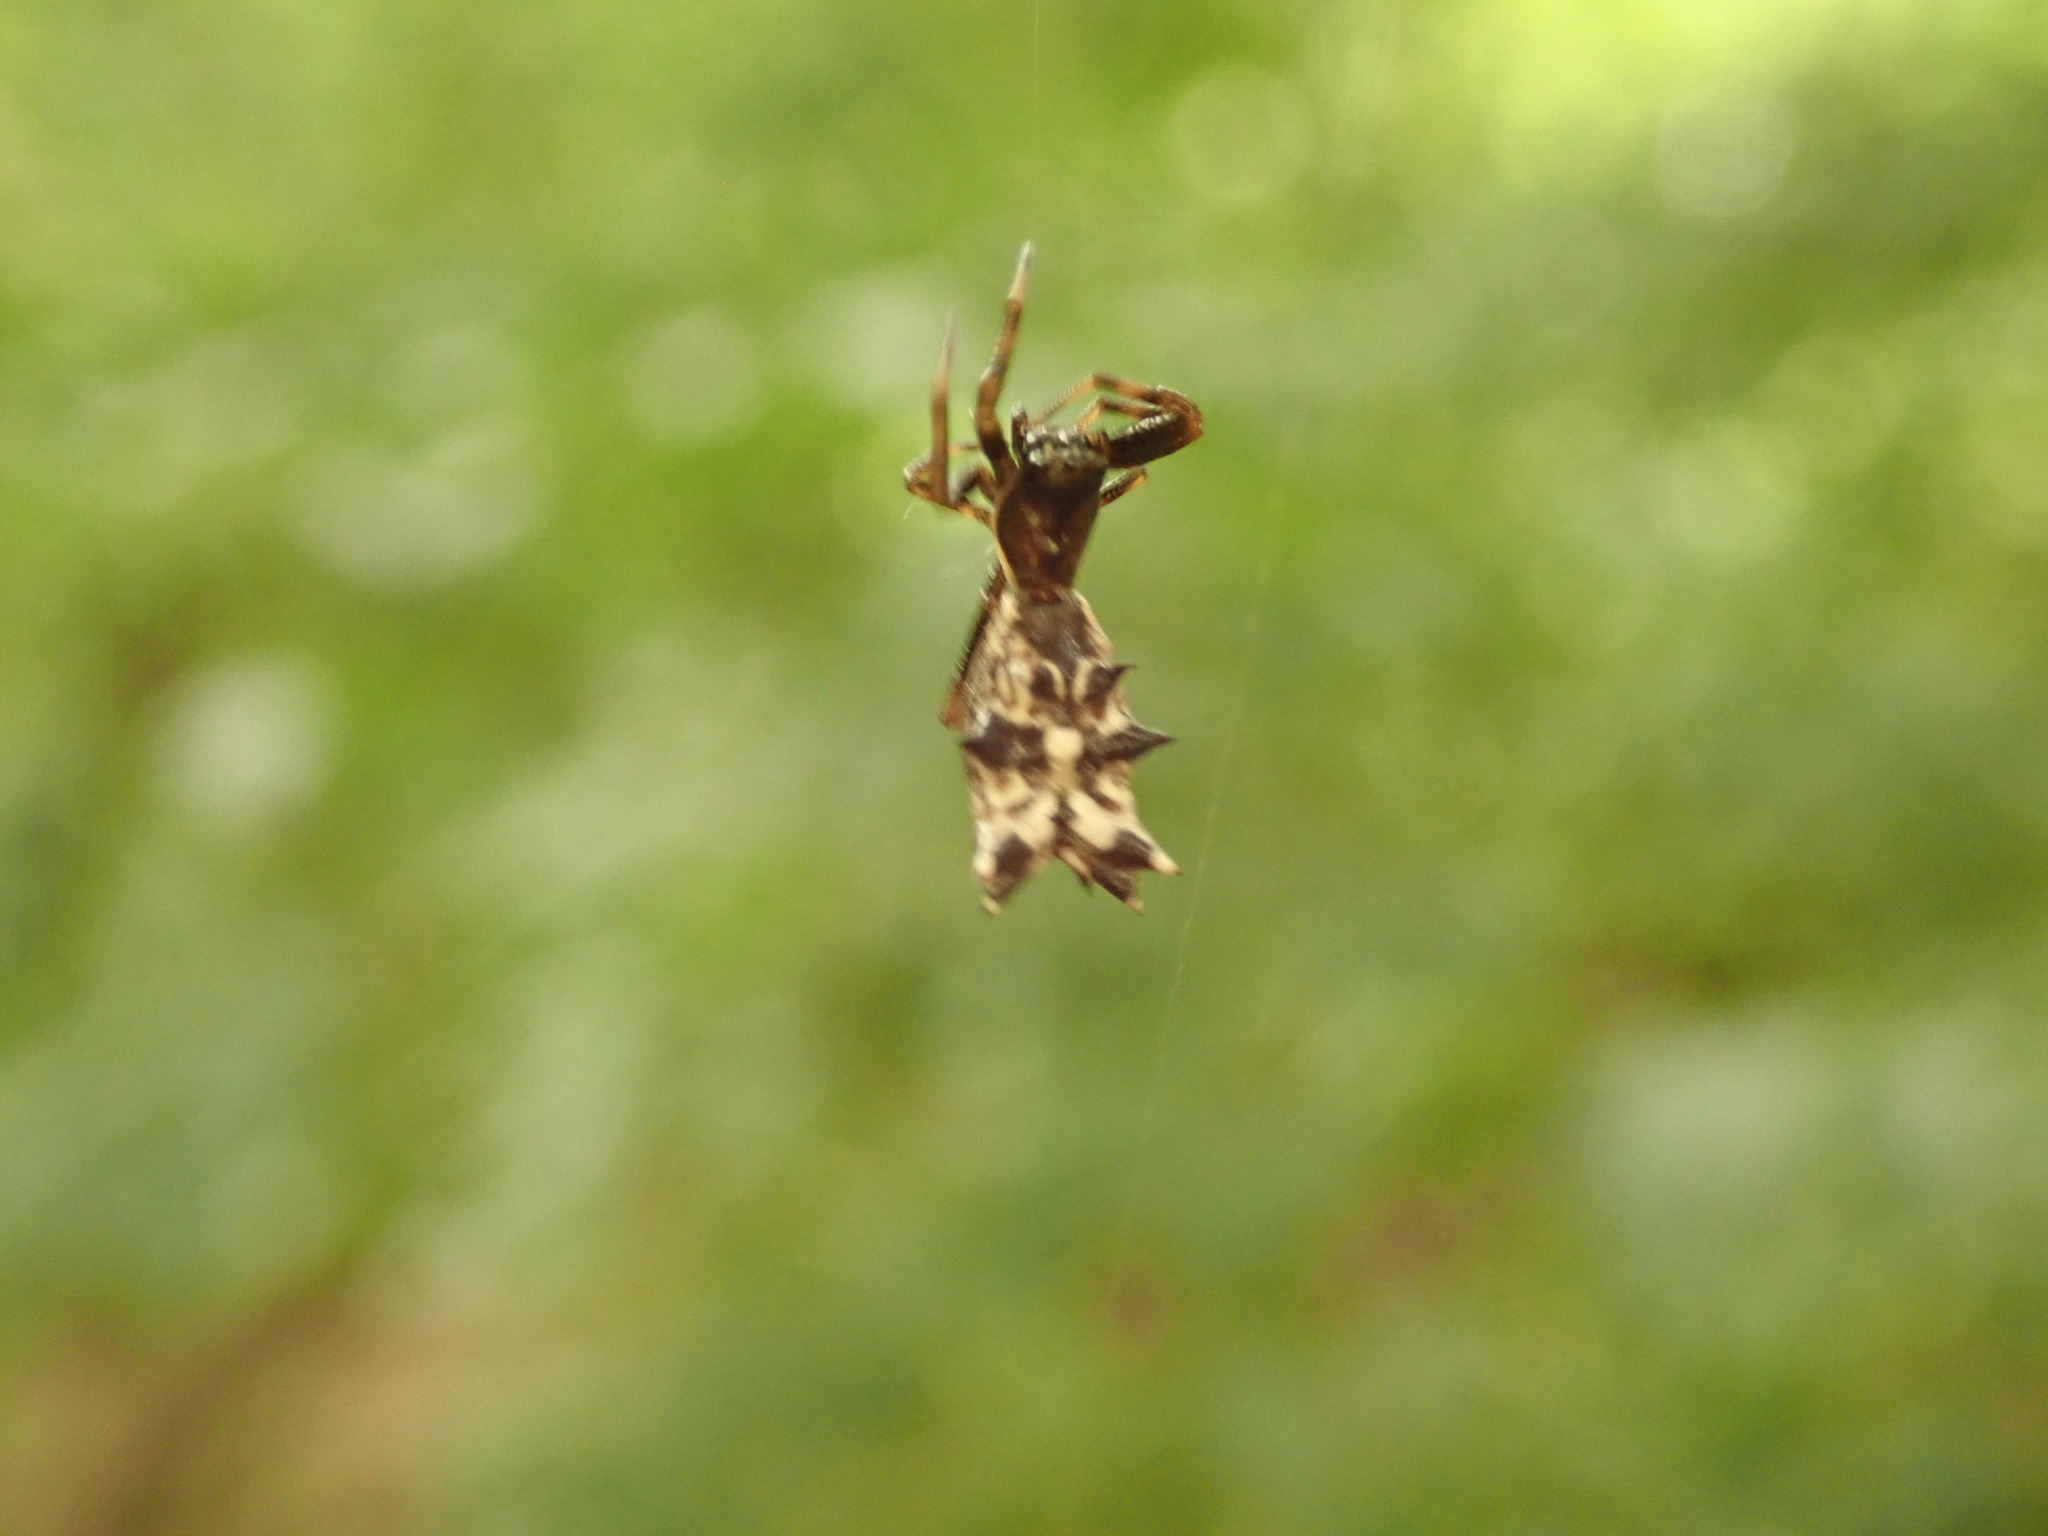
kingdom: Animalia
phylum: Arthropoda
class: Arachnida
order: Araneae
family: Araneidae
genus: Micrathena
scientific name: Micrathena gracilis
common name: Orb weavers
